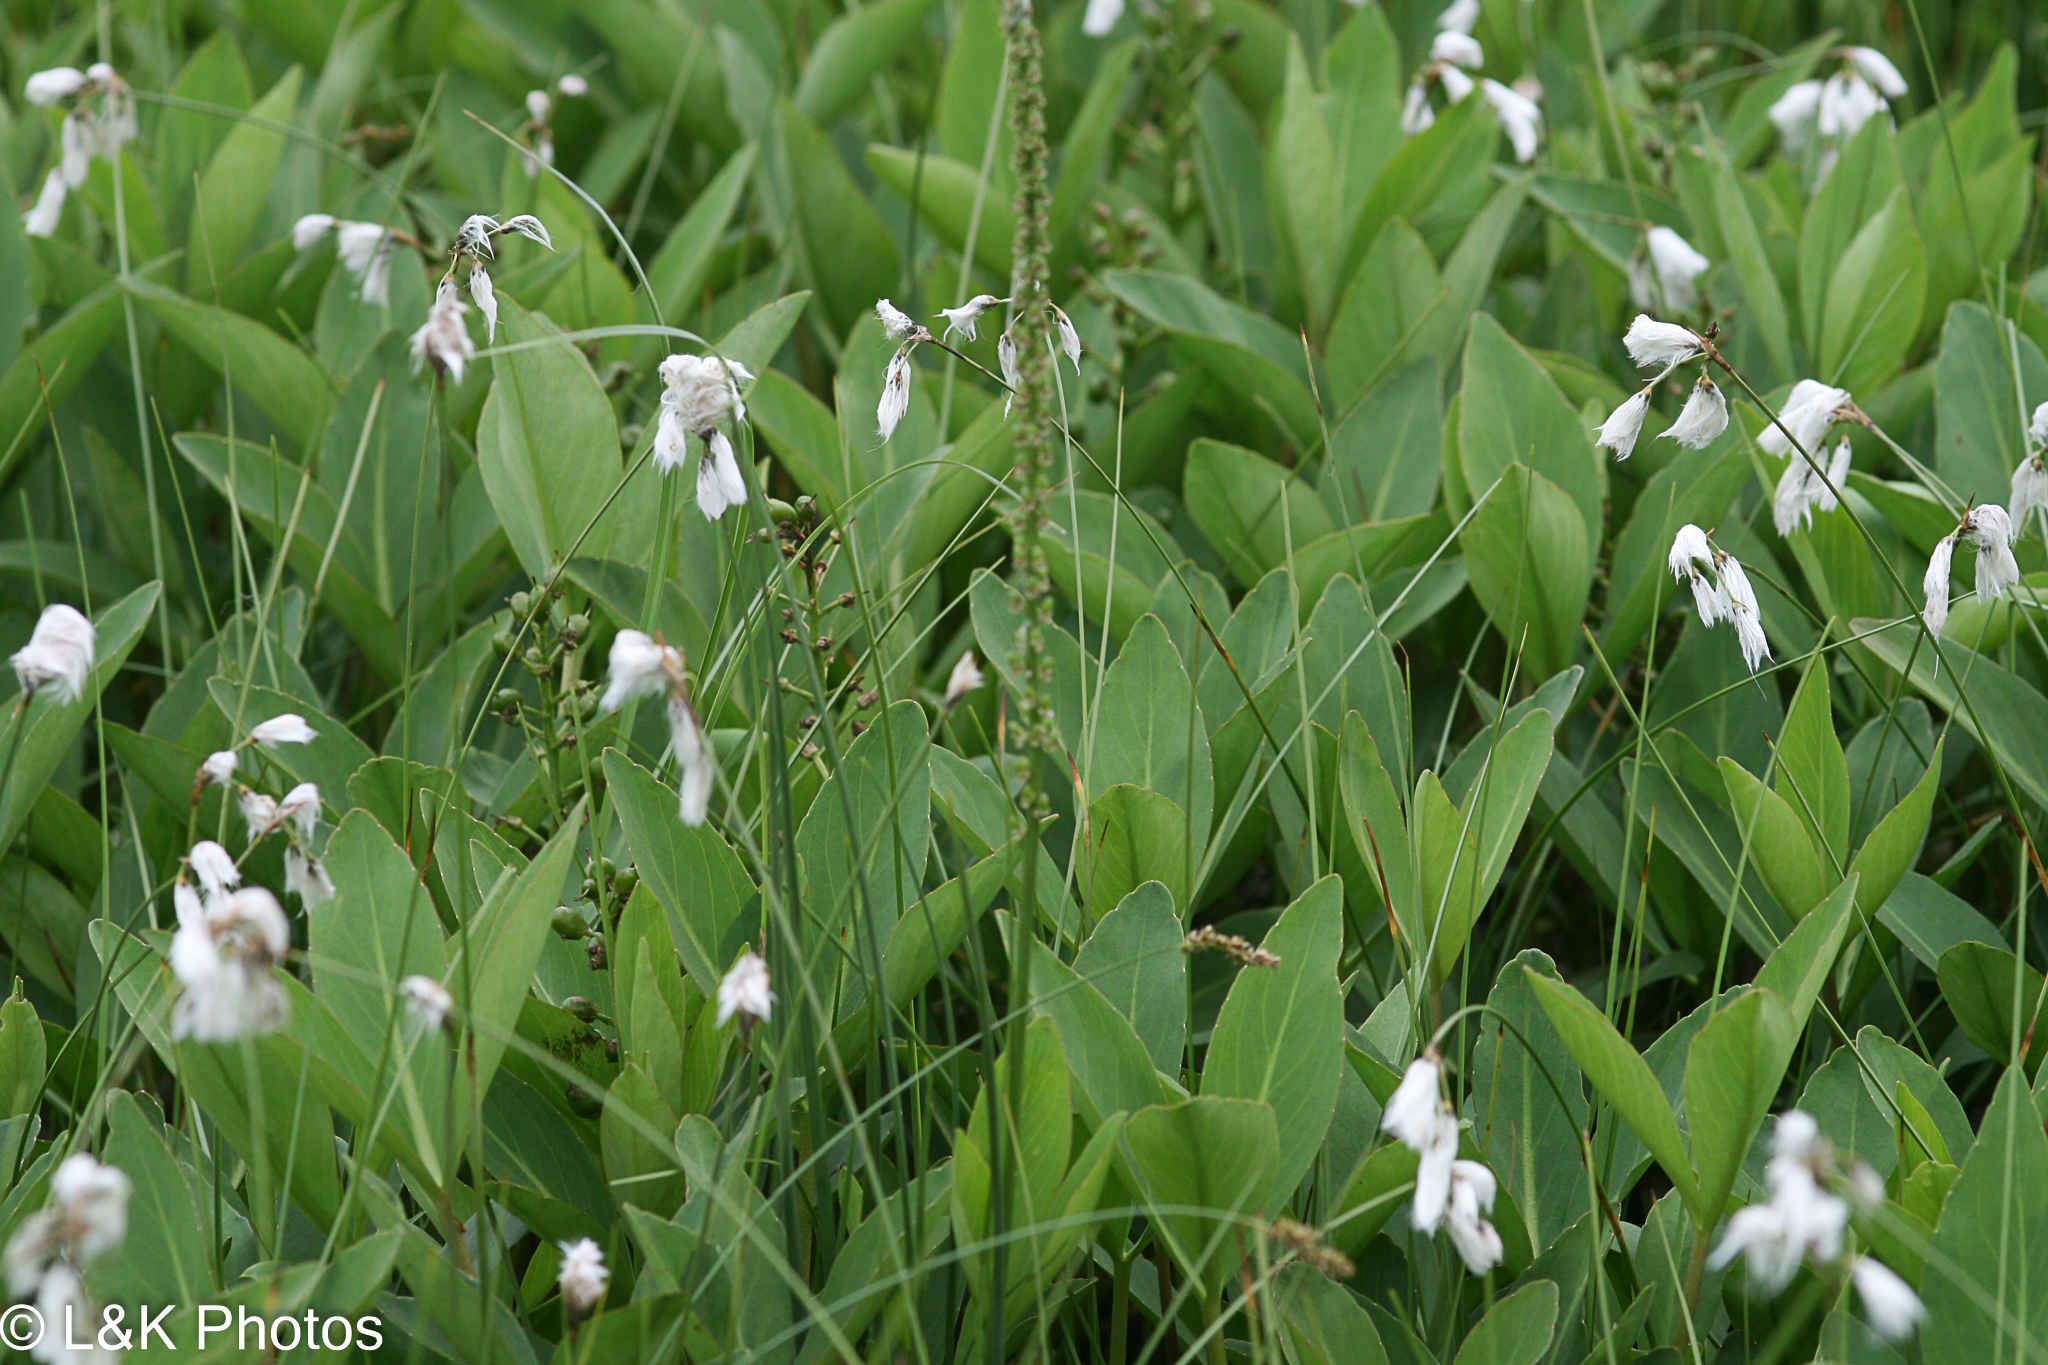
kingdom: Plantae
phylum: Tracheophyta
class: Liliopsida
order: Poales
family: Cyperaceae
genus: Eriophorum
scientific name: Eriophorum viridicarinatum
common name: Green-keeled cottongrass
